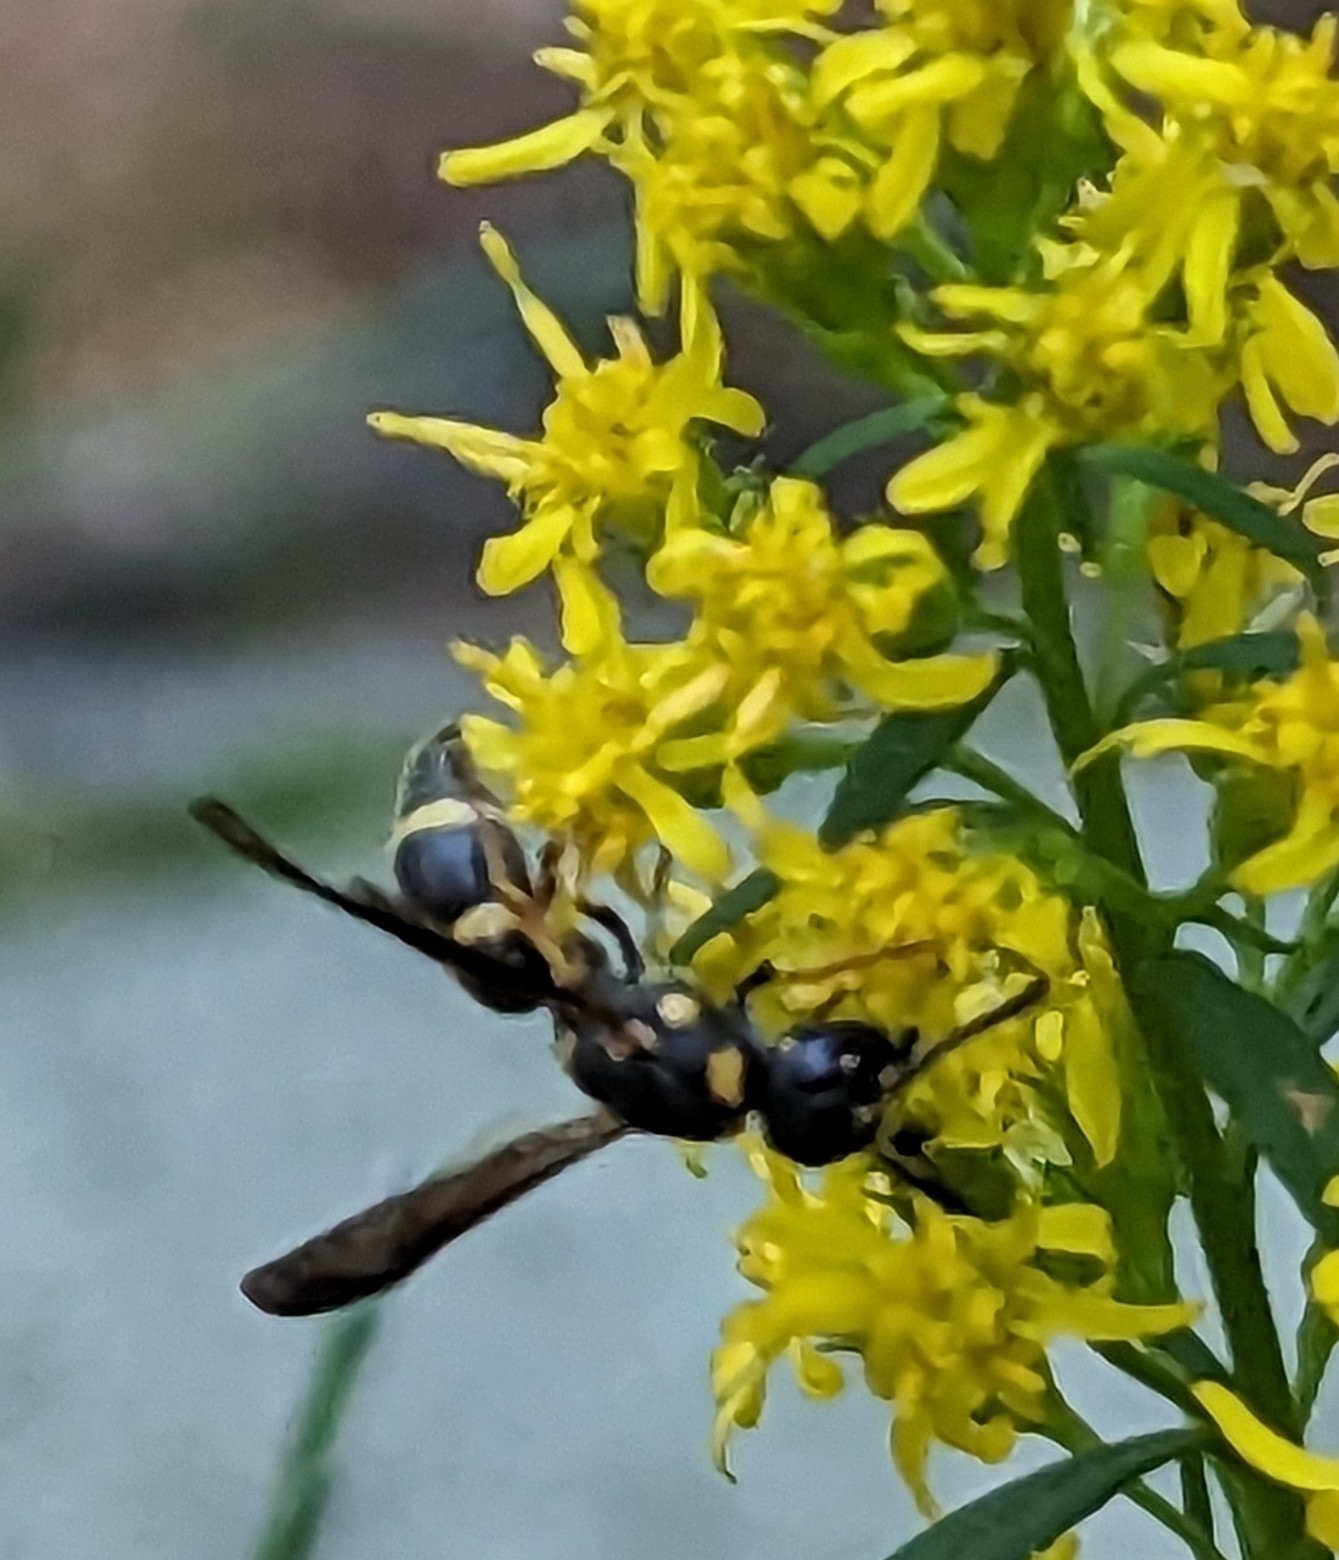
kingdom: Animalia
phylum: Arthropoda
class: Insecta
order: Hymenoptera
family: Eumenidae
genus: Parancistrocerus
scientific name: Parancistrocerus perennis
